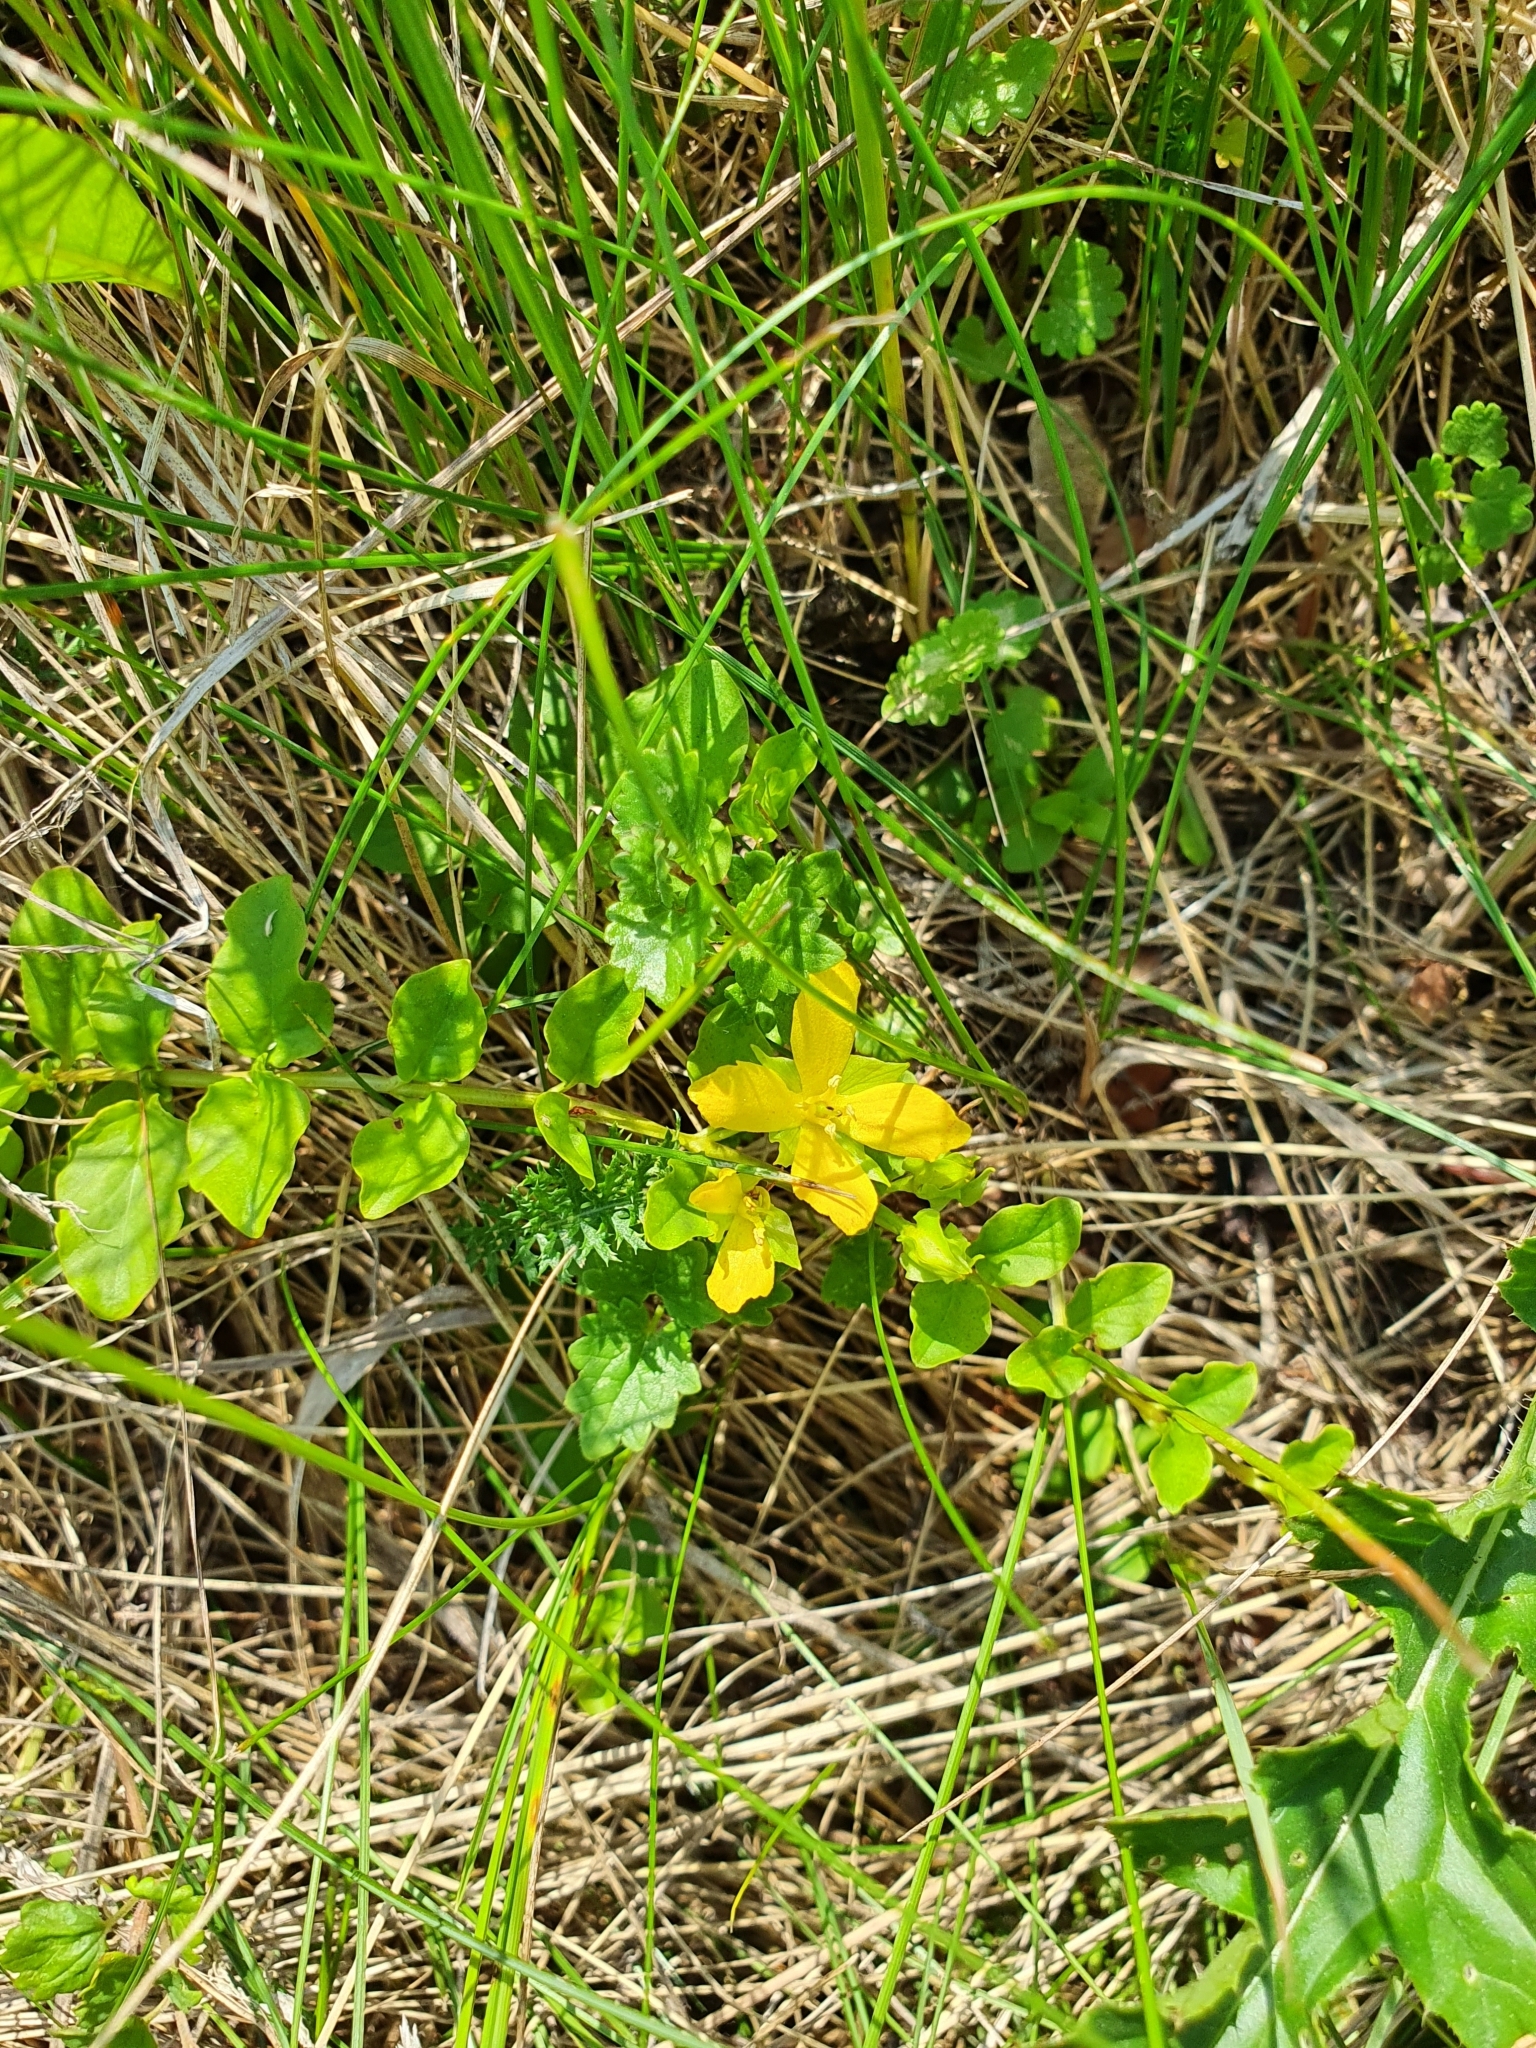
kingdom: Plantae
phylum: Tracheophyta
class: Magnoliopsida
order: Ericales
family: Primulaceae
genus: Lysimachia
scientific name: Lysimachia nummularia
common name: Moneywort
